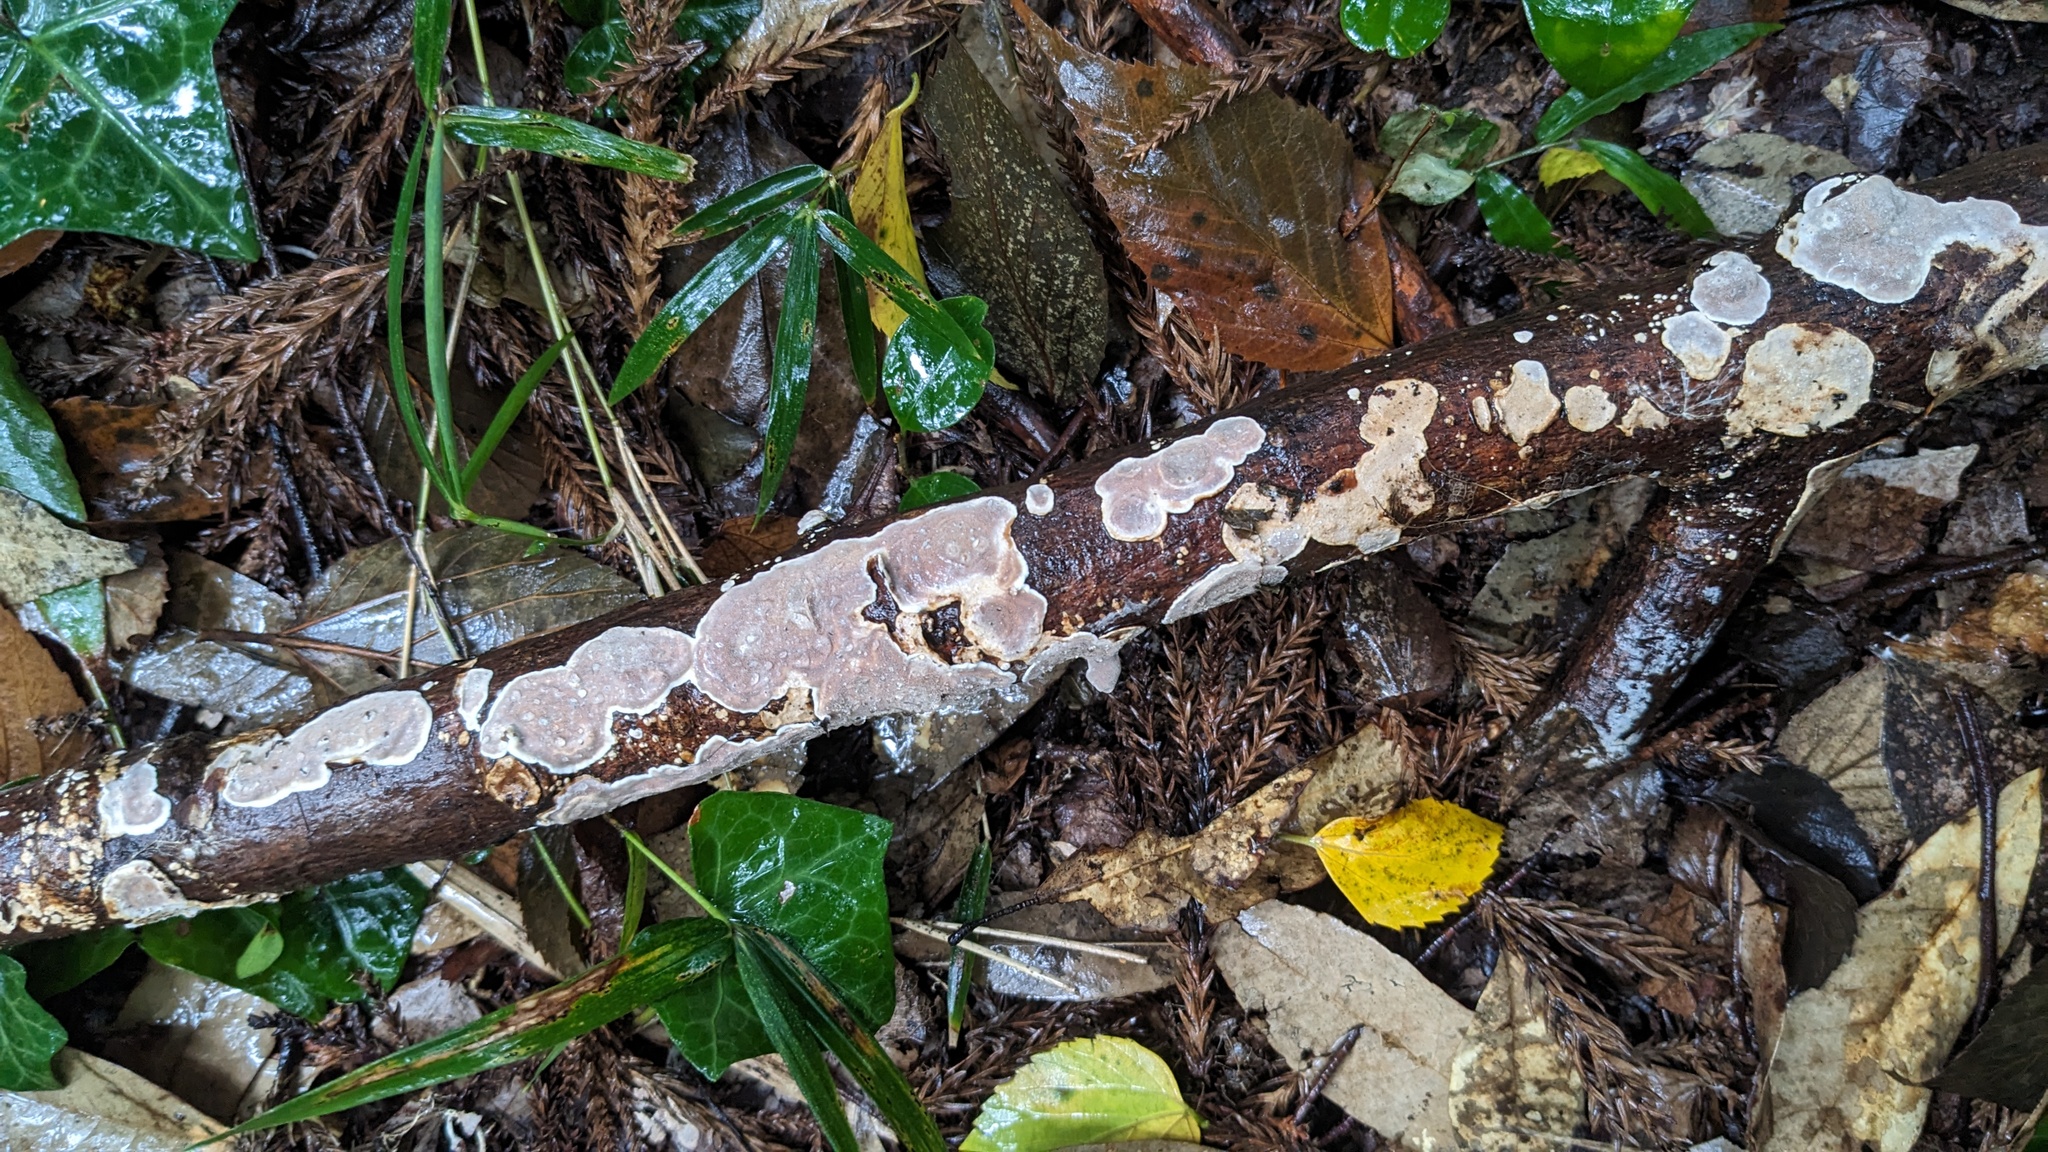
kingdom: Fungi
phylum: Basidiomycota
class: Agaricomycetes
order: Auriculariales
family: Auriculariaceae
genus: Heterochaete
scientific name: Heterochaete delicata
